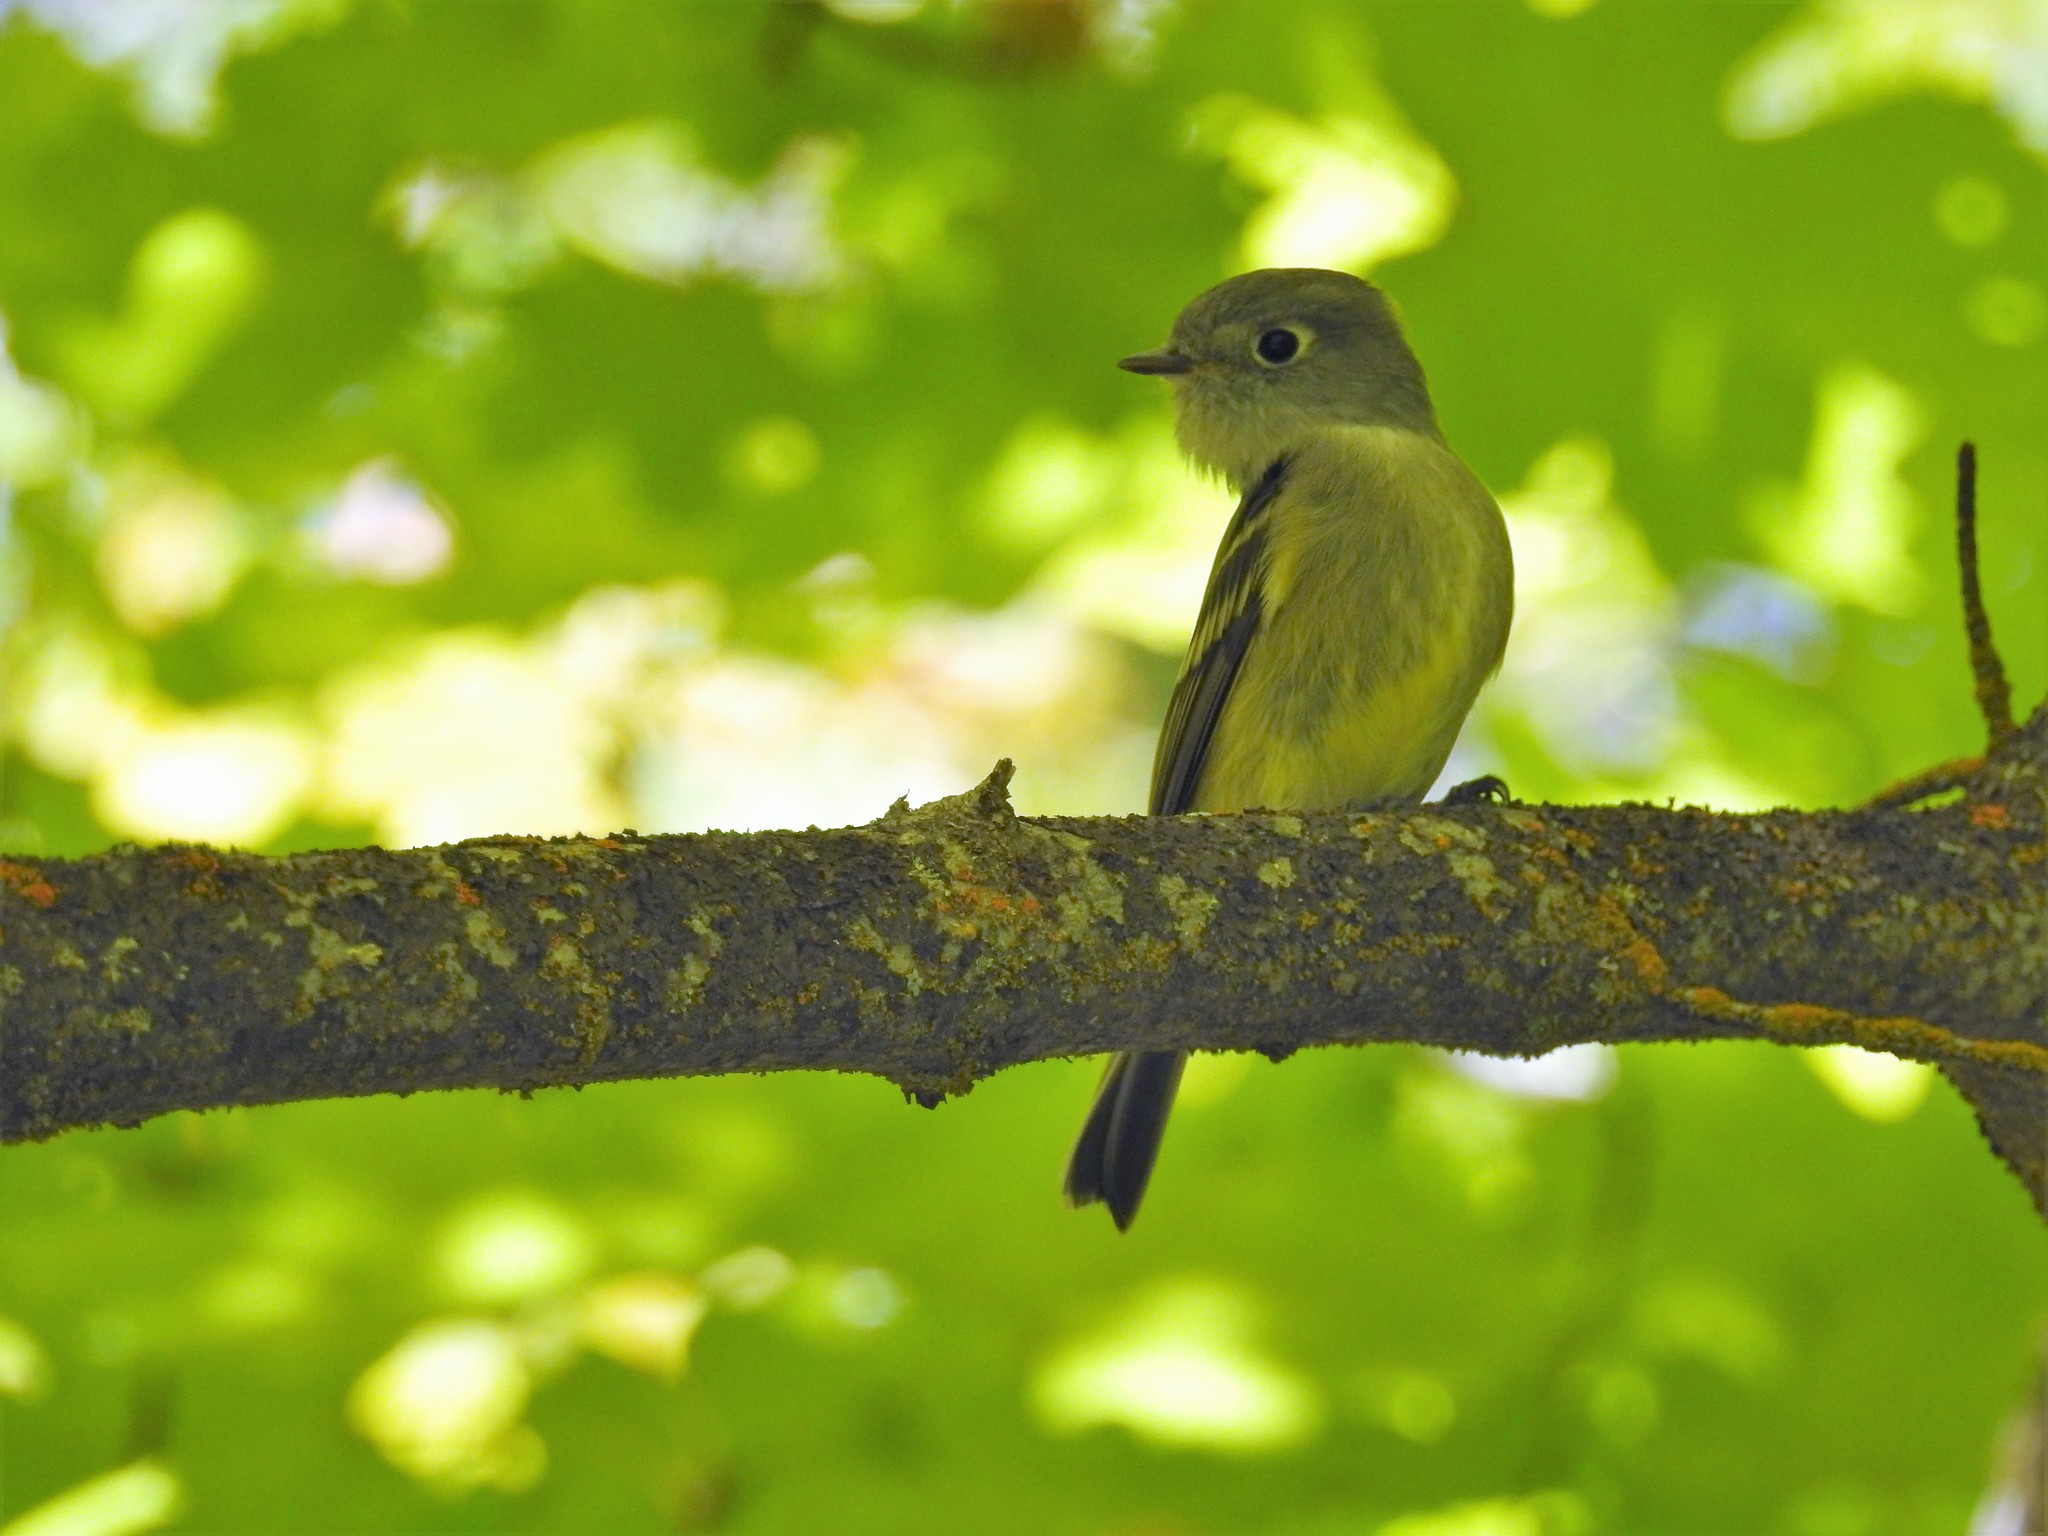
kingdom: Animalia
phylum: Chordata
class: Aves
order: Passeriformes
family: Tyrannidae
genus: Empidonax
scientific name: Empidonax hammondii
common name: Hammond's flycatcher
